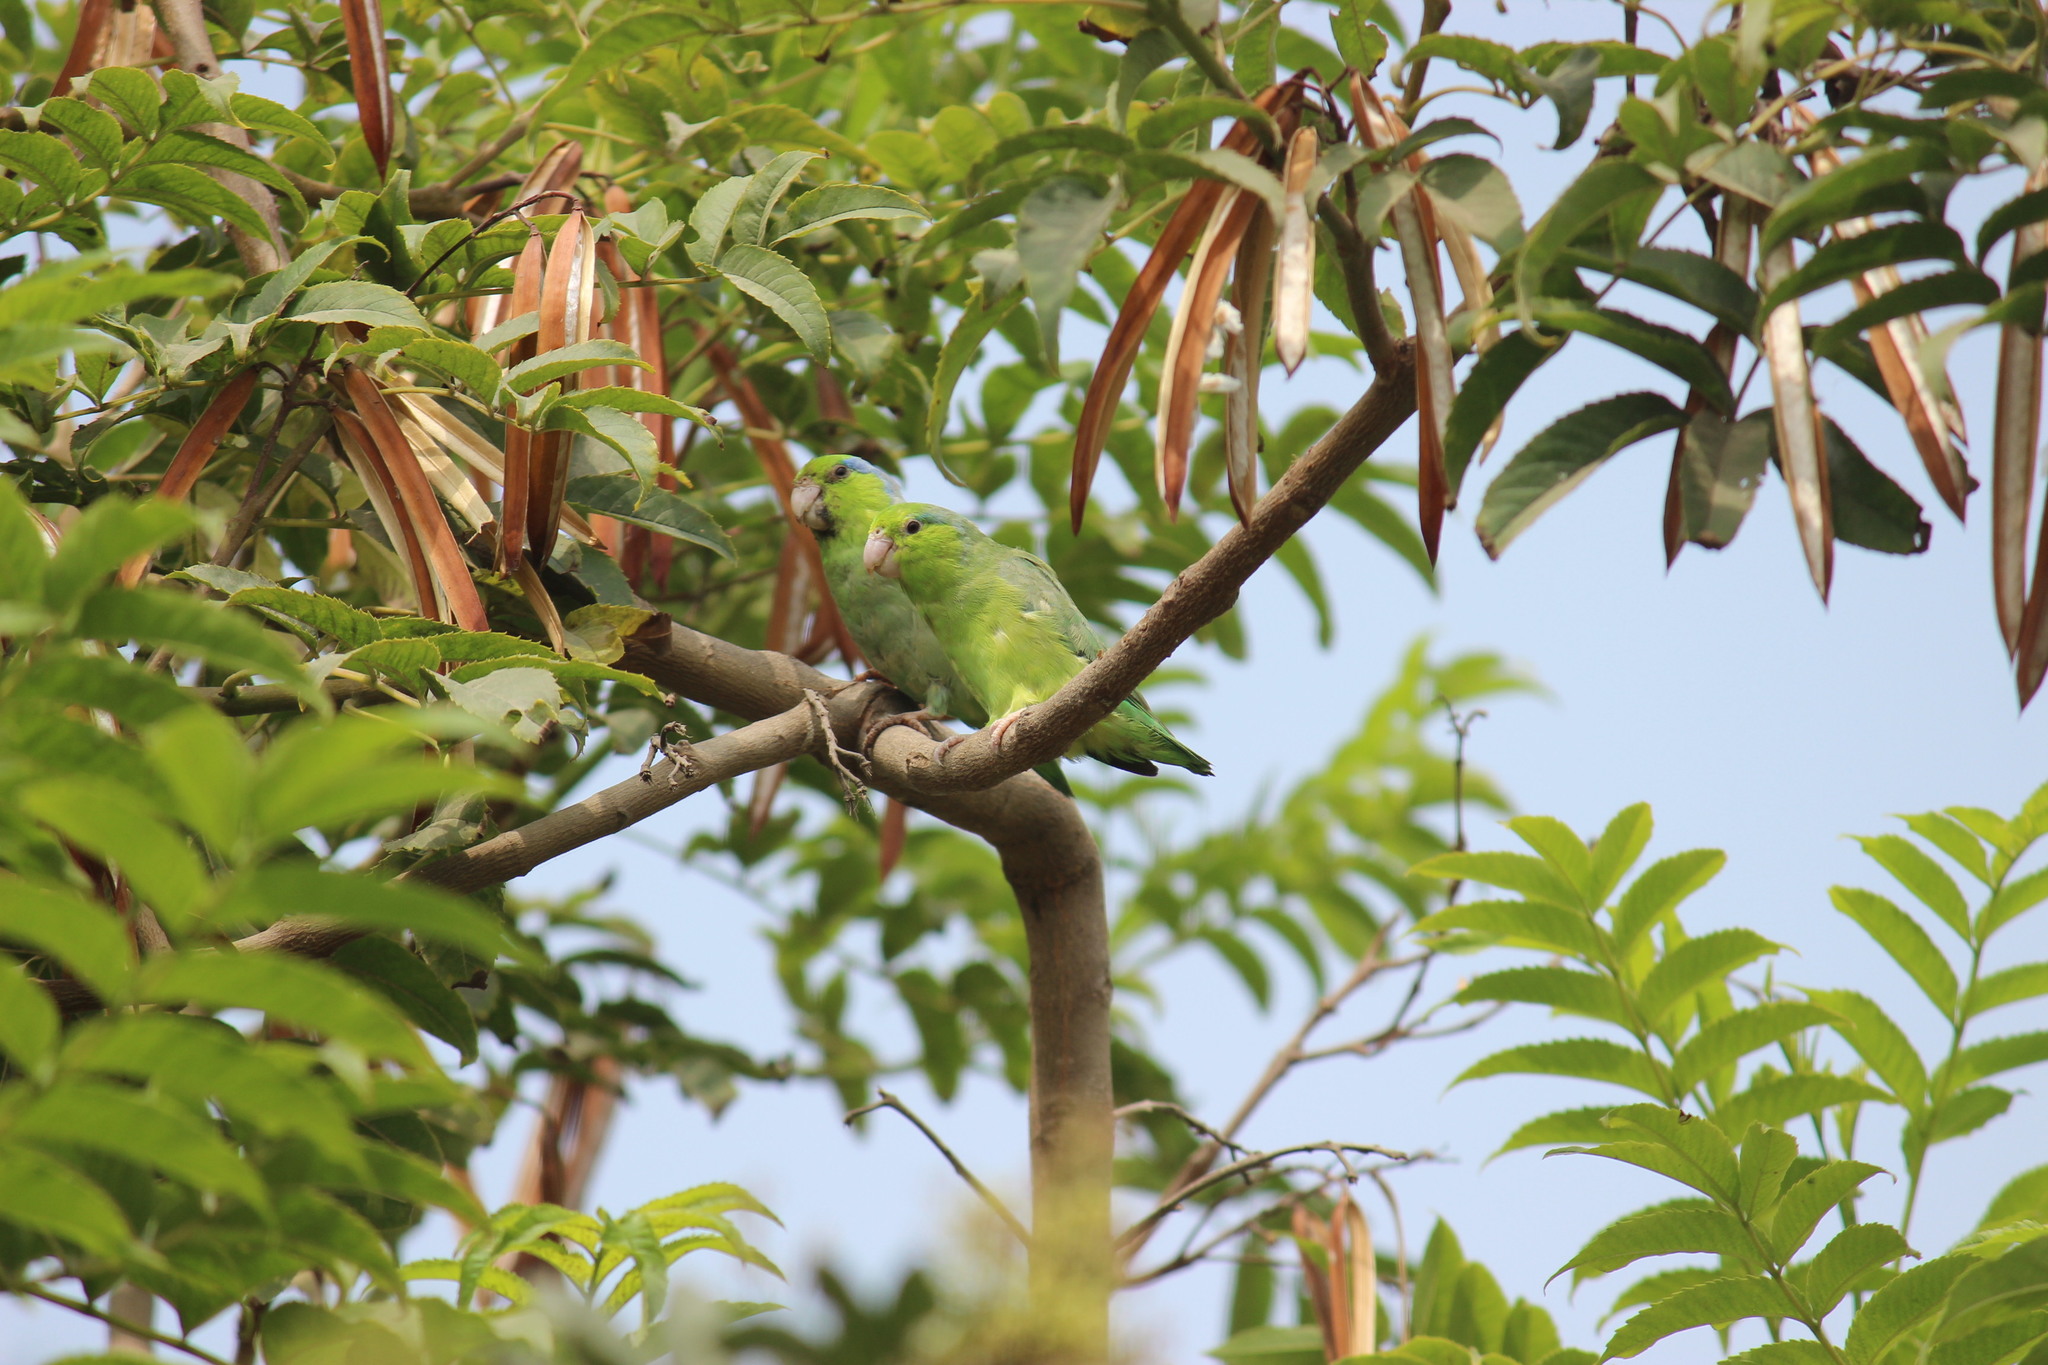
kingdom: Animalia
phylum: Chordata
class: Aves
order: Psittaciformes
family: Psittacidae
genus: Forpus
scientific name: Forpus coelestis
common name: Pacific parrotlet
